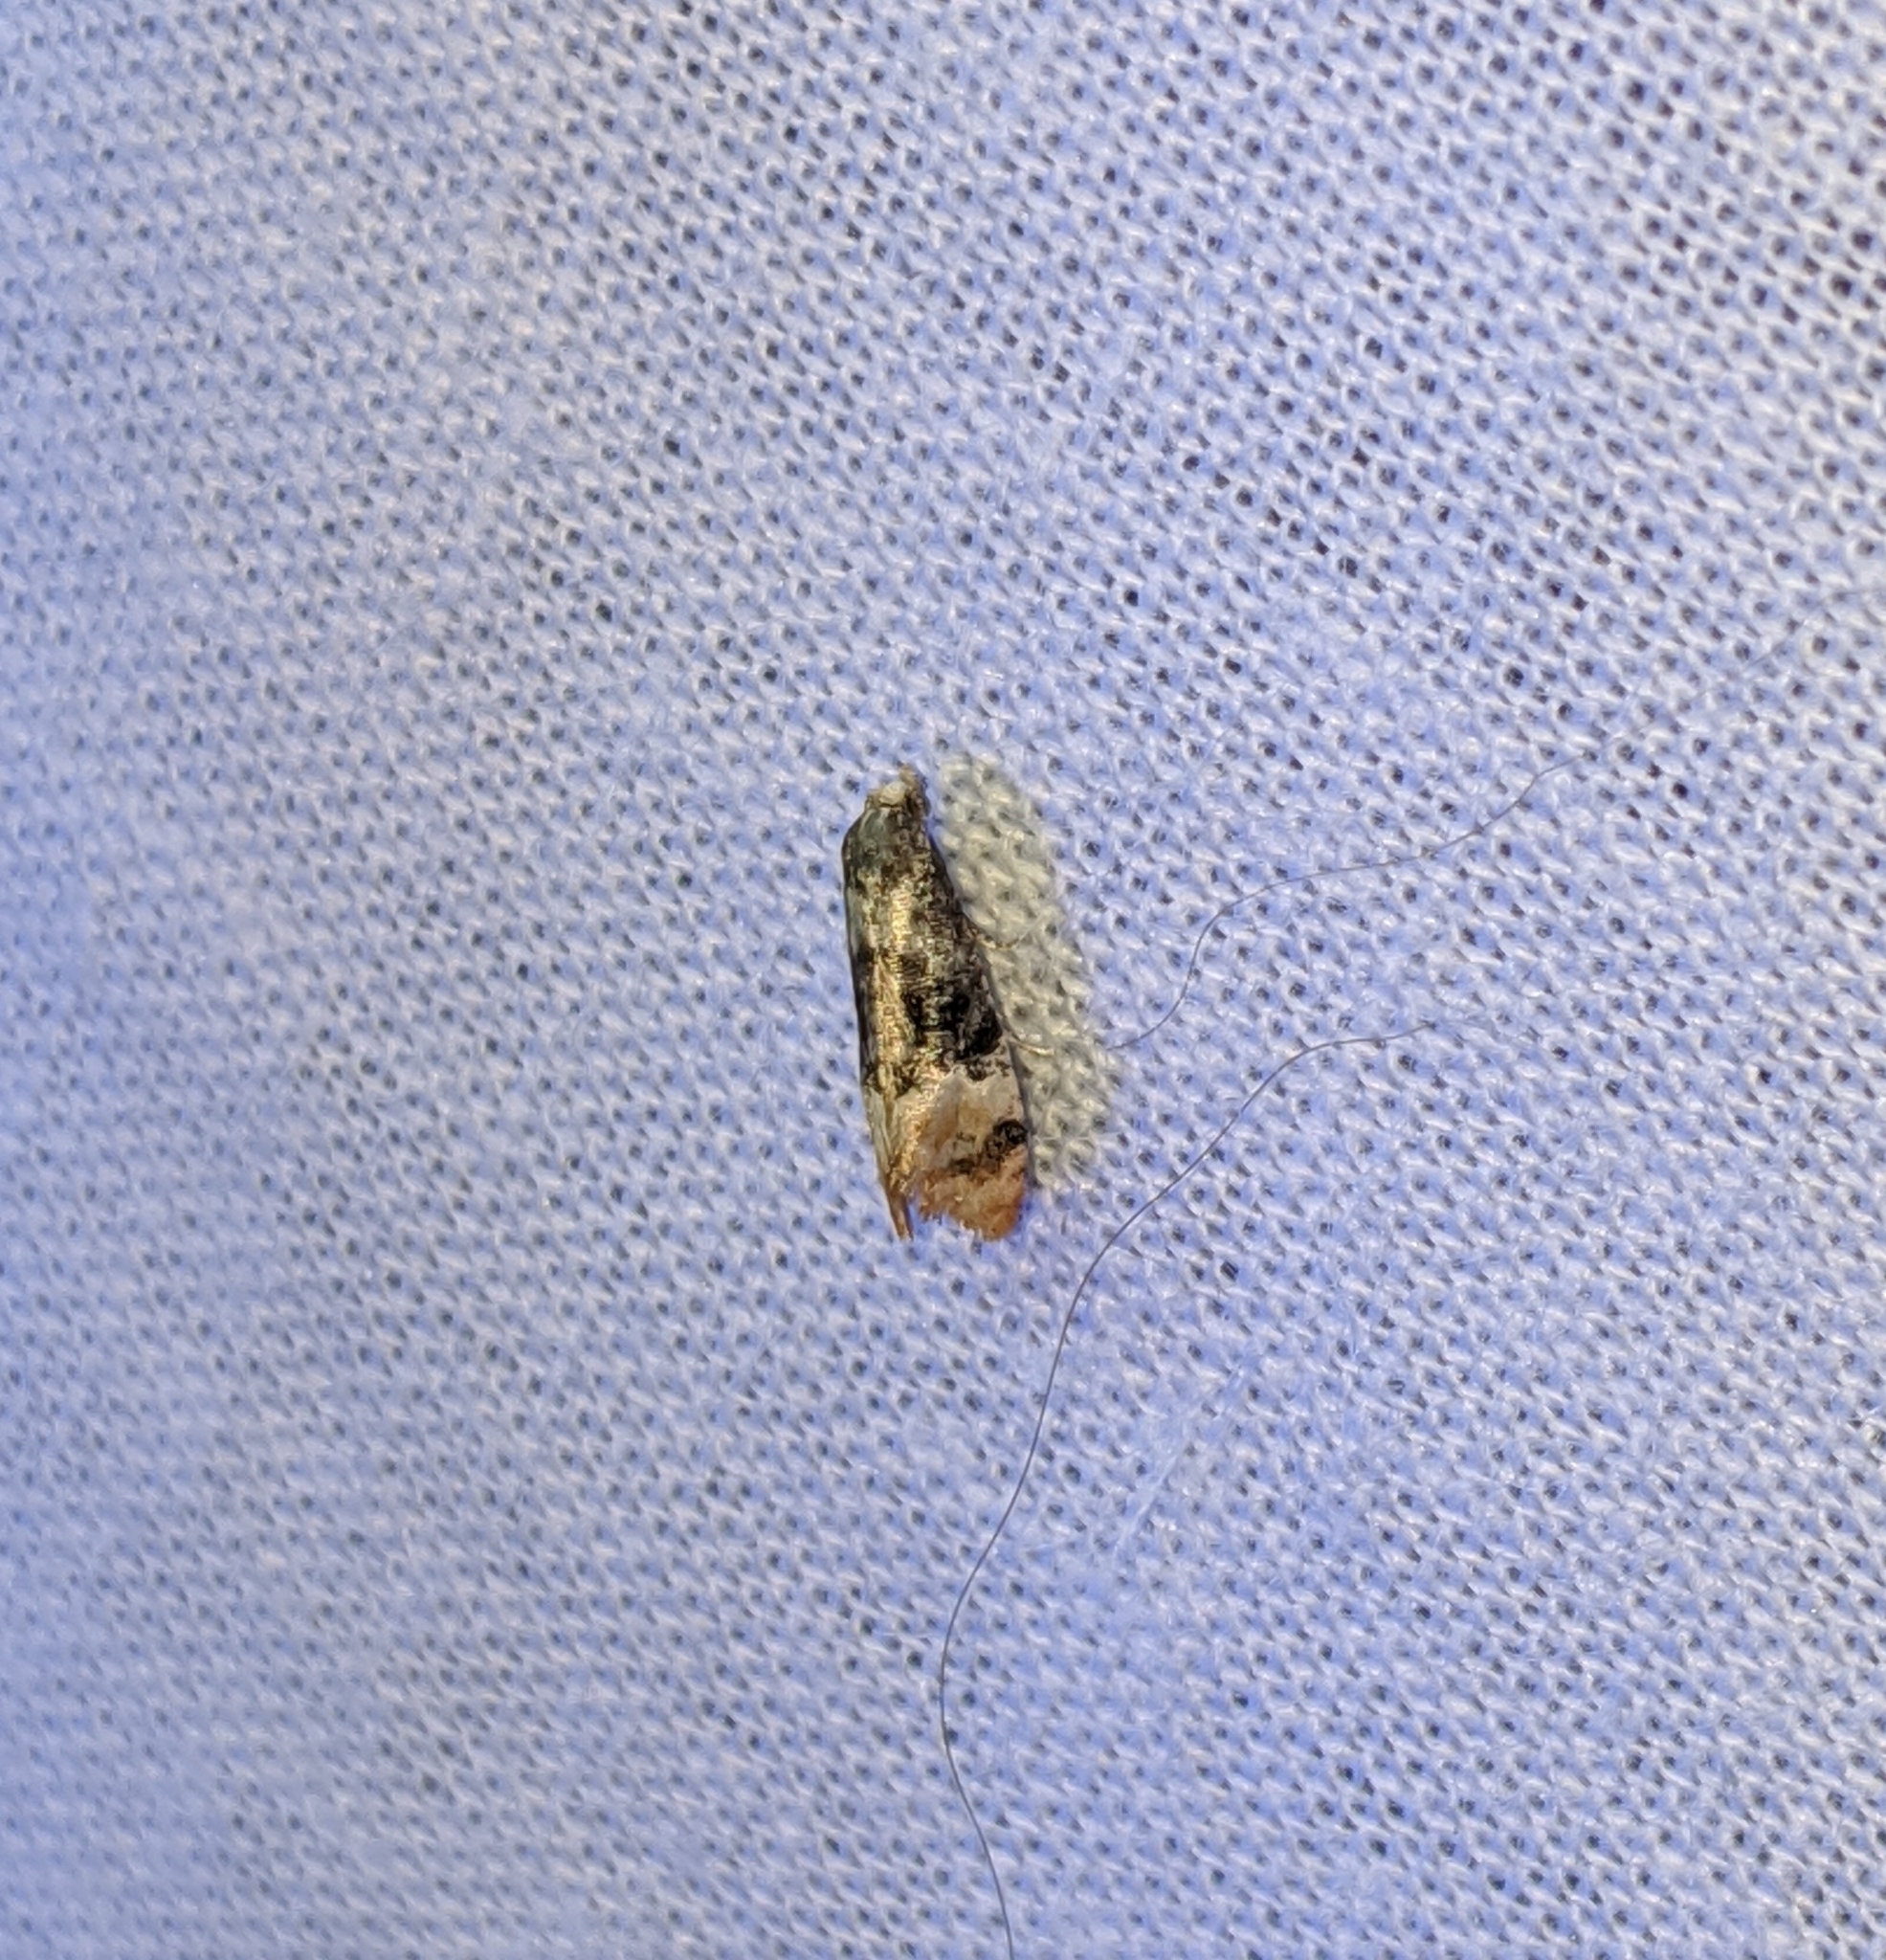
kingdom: Animalia
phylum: Arthropoda
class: Insecta
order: Lepidoptera
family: Tortricidae
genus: Thyraylia
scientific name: Thyraylia nana
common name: Birch conch
